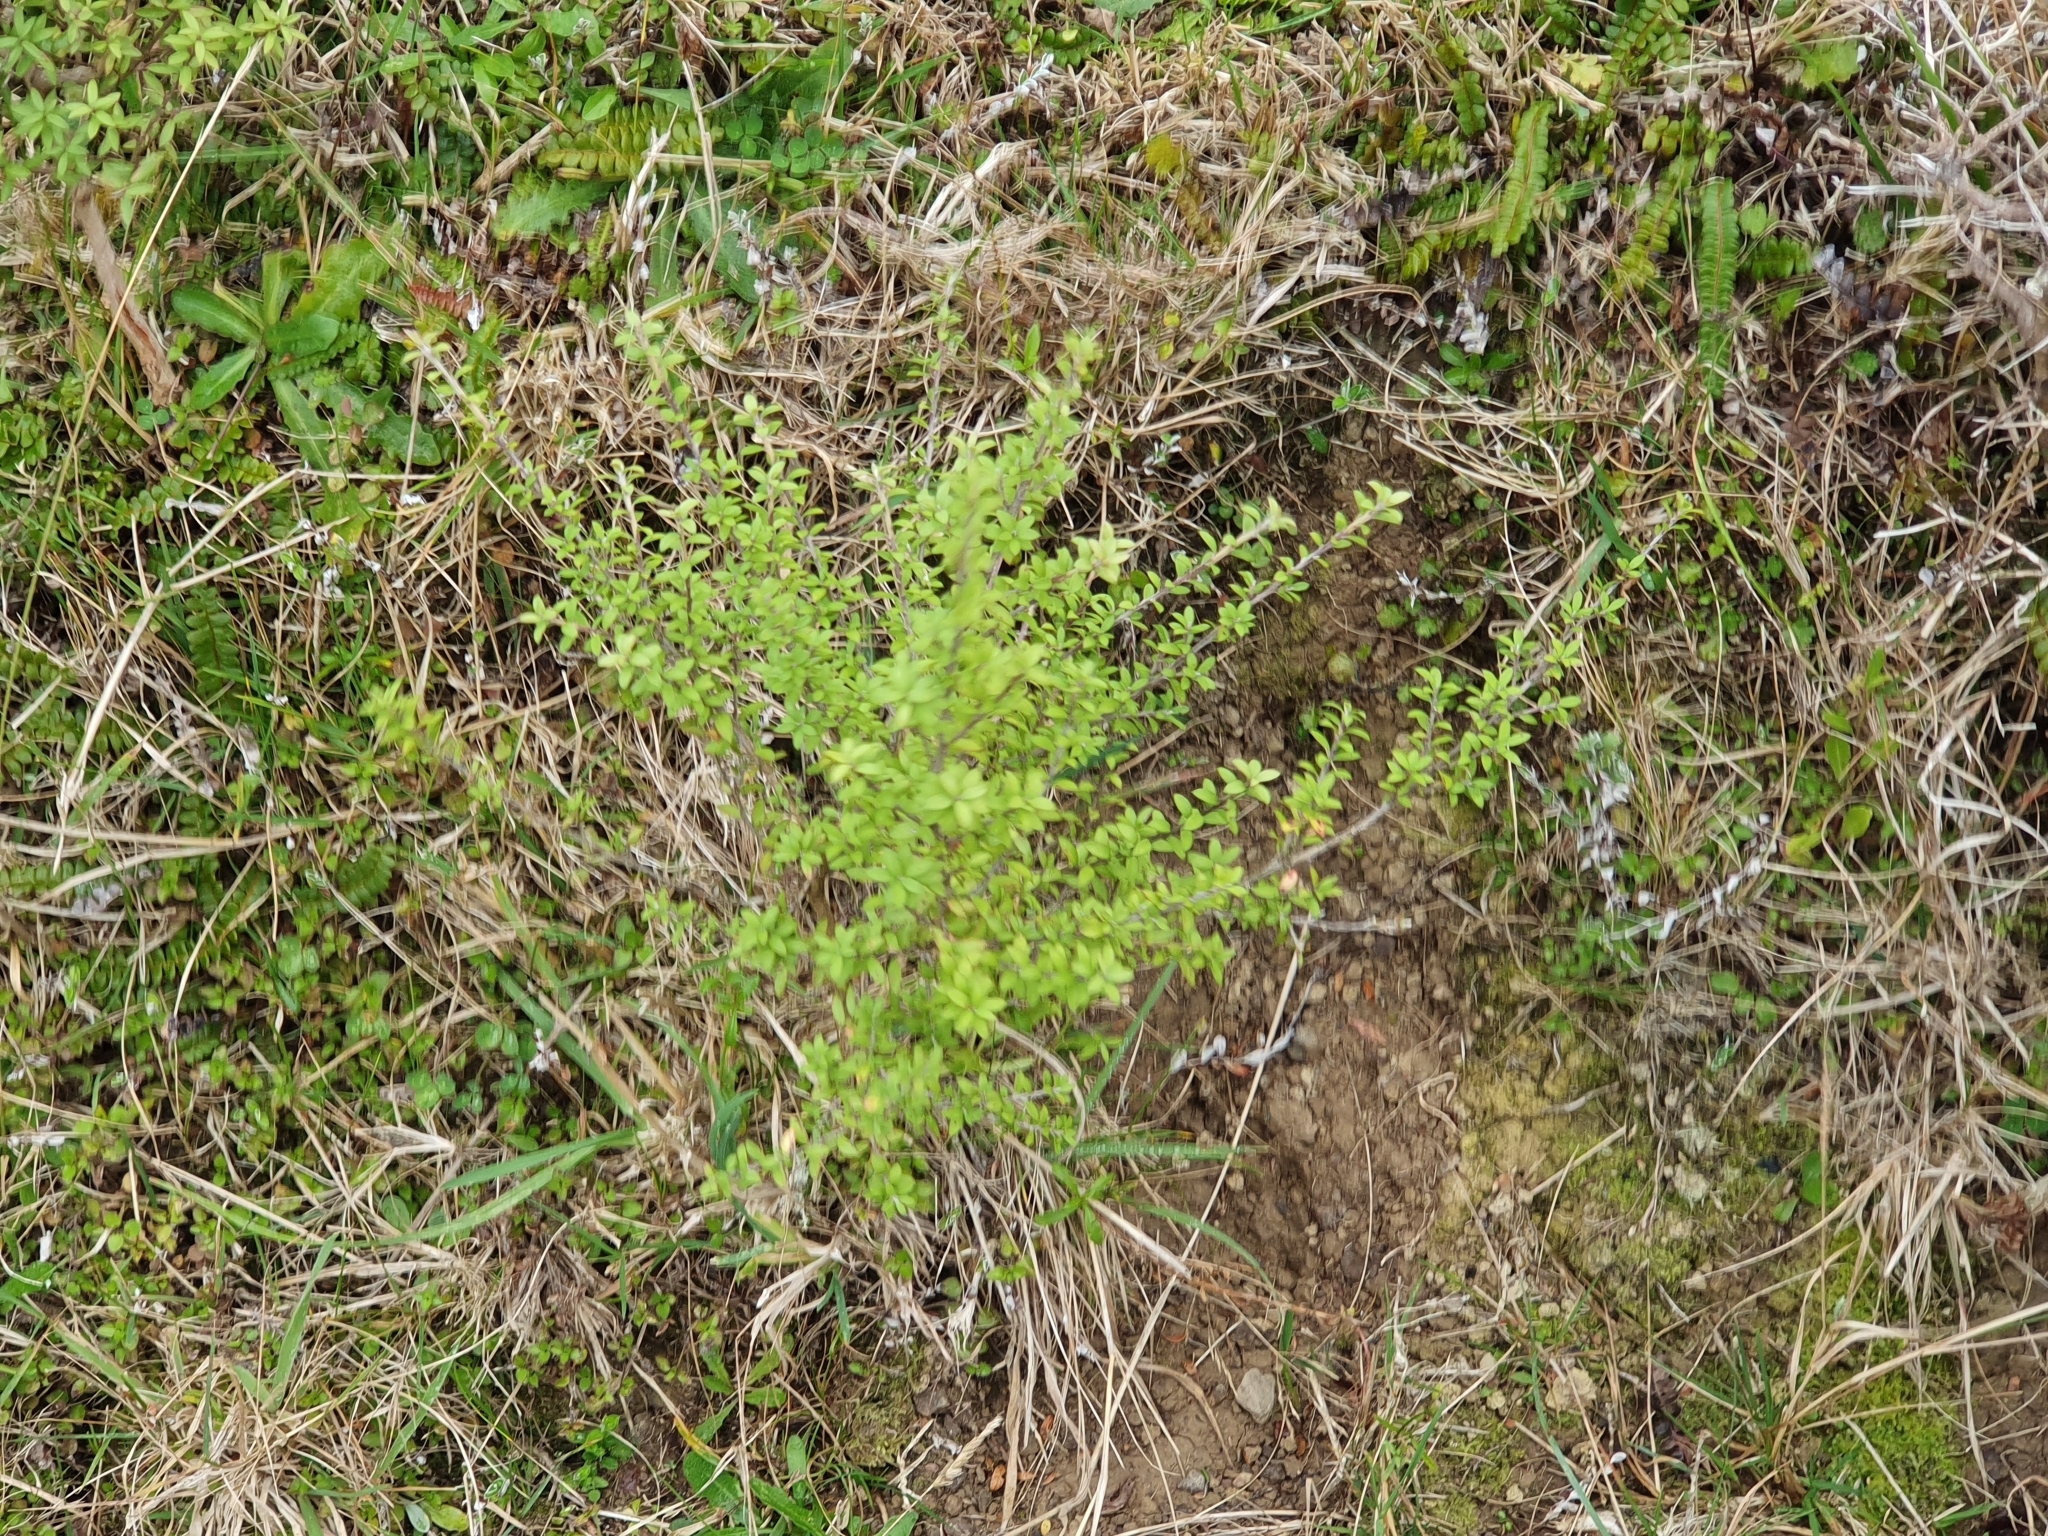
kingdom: Plantae
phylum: Tracheophyta
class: Magnoliopsida
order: Myrtales
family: Myrtaceae
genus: Leptospermum
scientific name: Leptospermum scoparium
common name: Broom tea-tree
